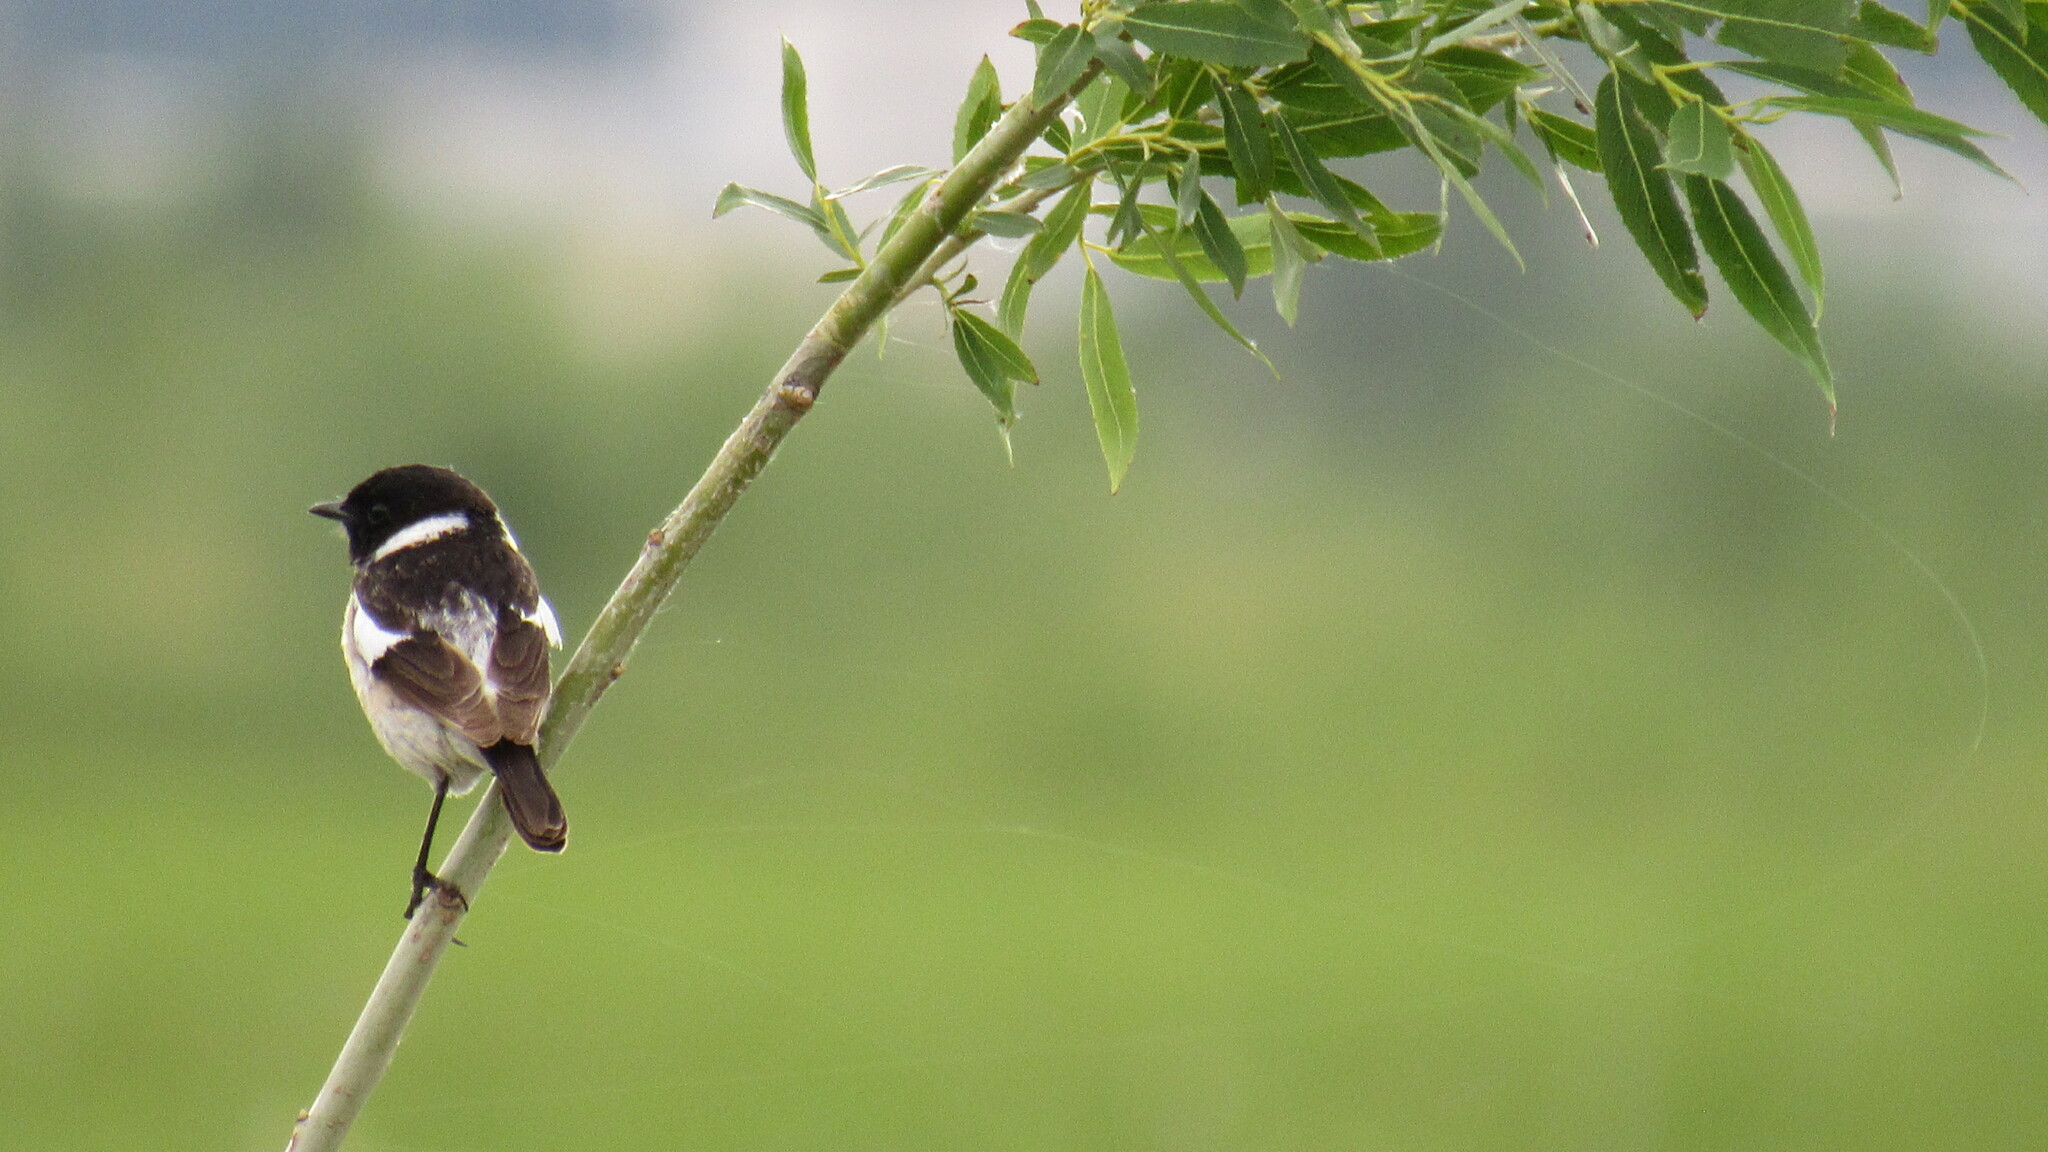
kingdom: Animalia
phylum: Chordata
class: Aves
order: Passeriformes
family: Muscicapidae
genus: Saxicola
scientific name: Saxicola maurus
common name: Siberian stonechat
